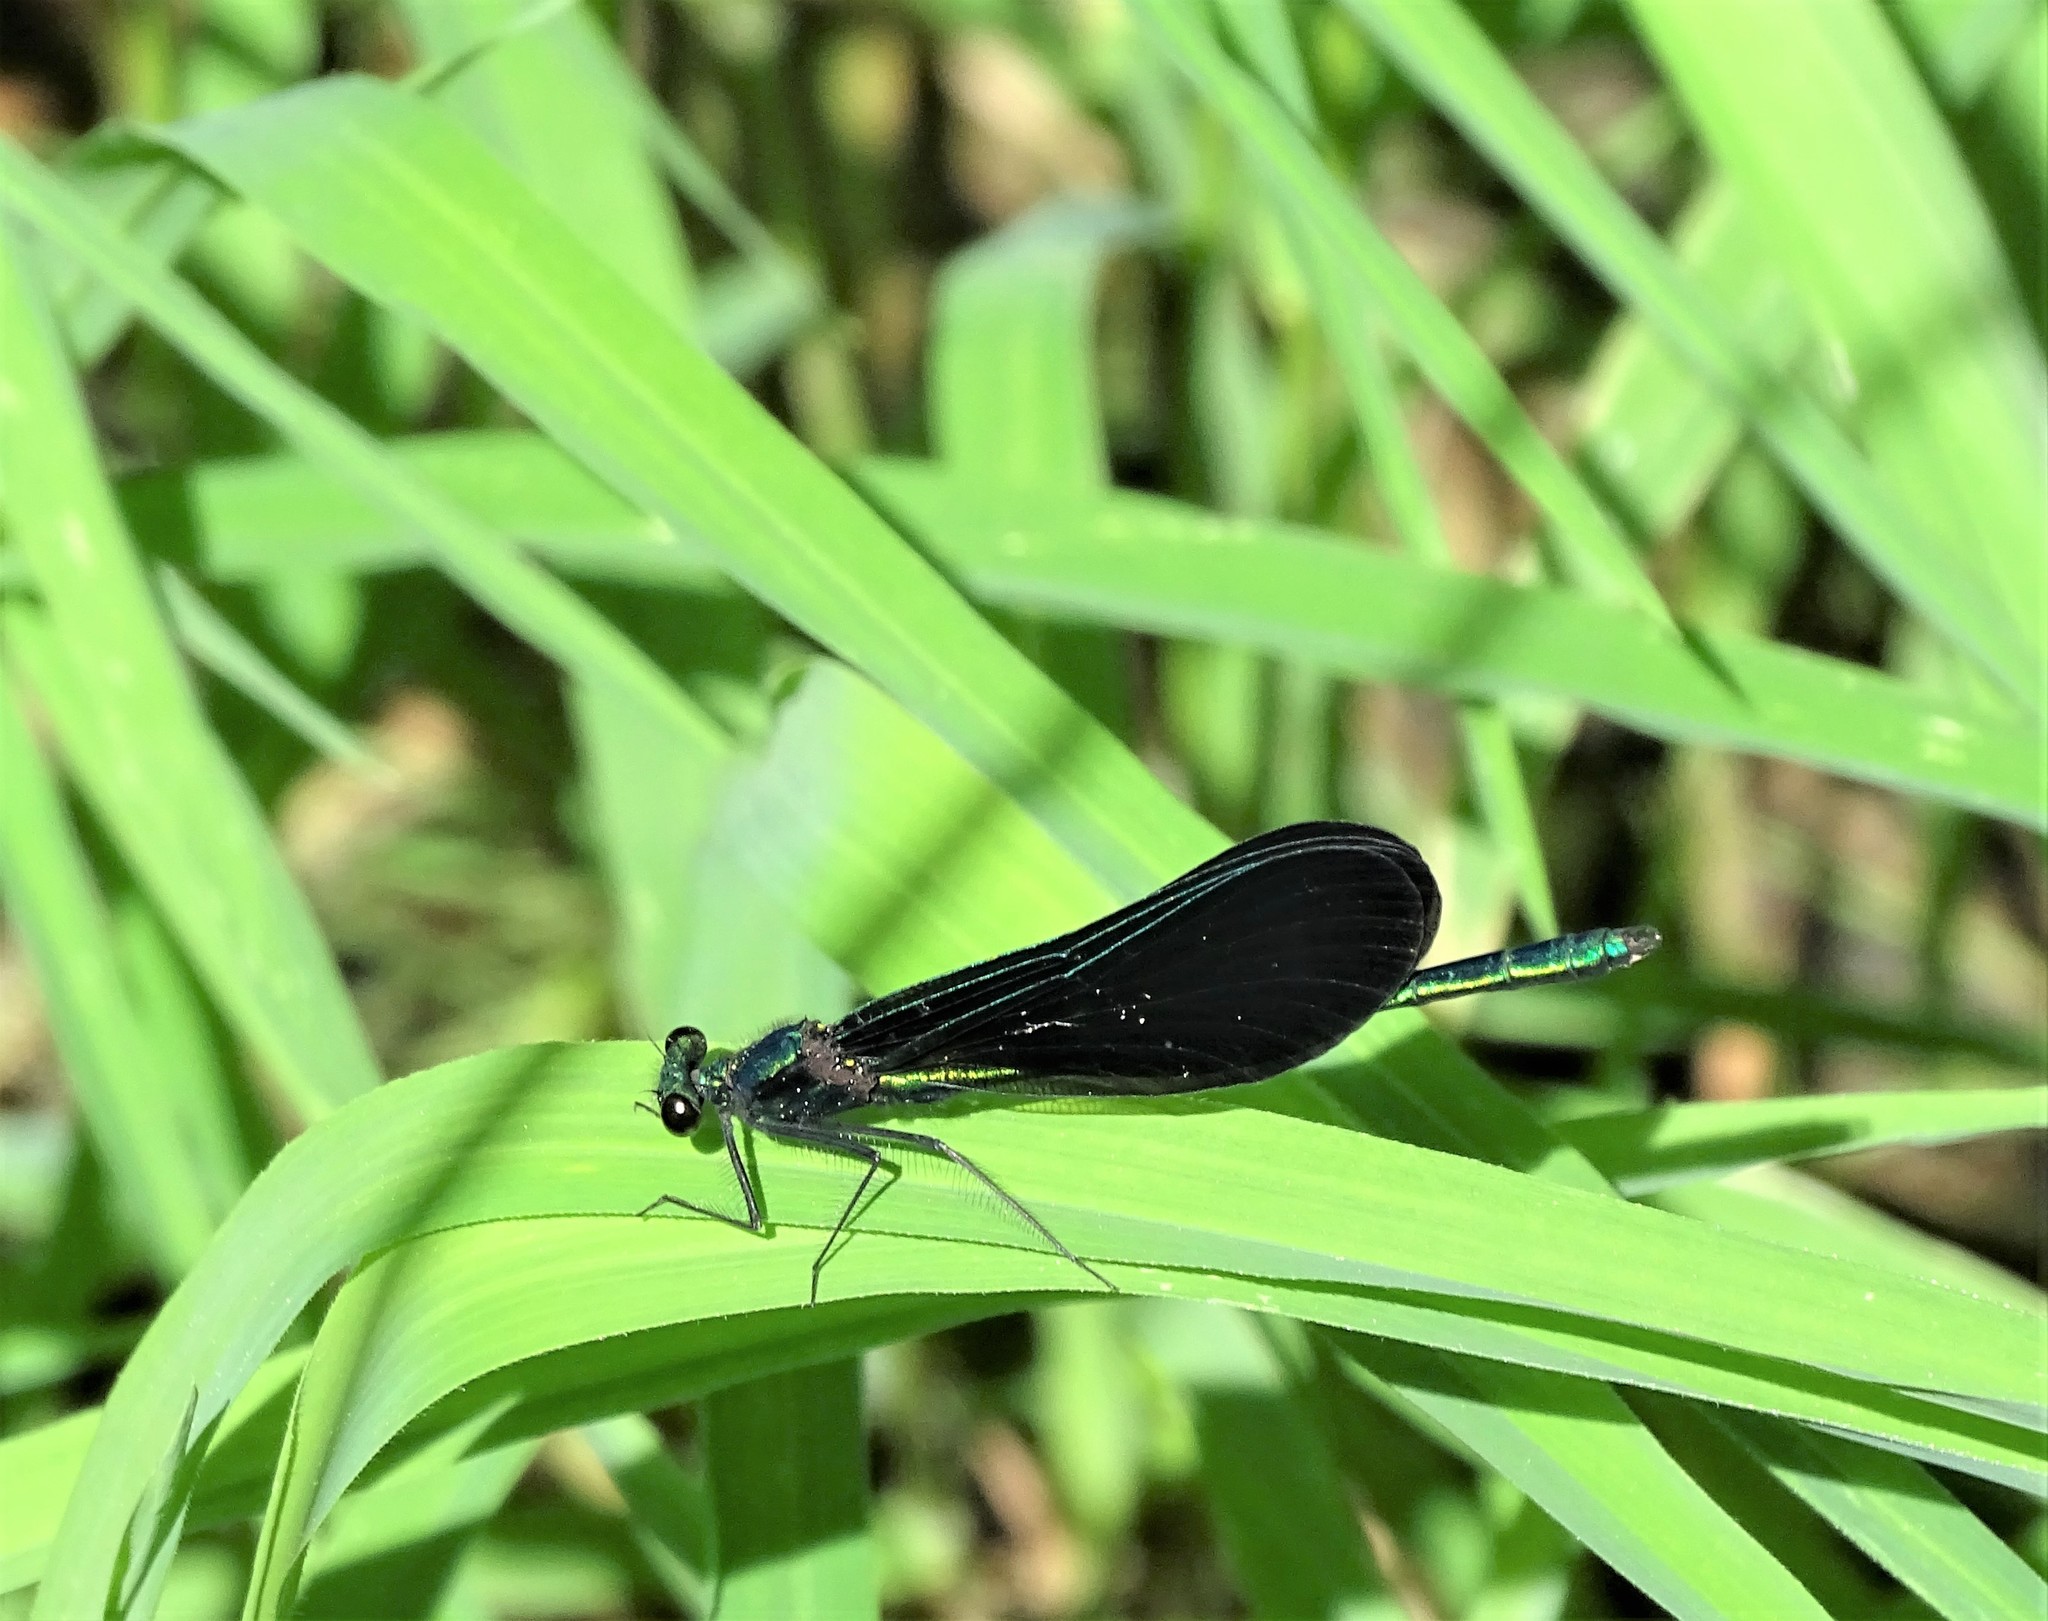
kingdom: Animalia
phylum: Arthropoda
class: Insecta
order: Odonata
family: Calopterygidae
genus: Calopteryx
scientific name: Calopteryx maculata
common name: Ebony jewelwing
